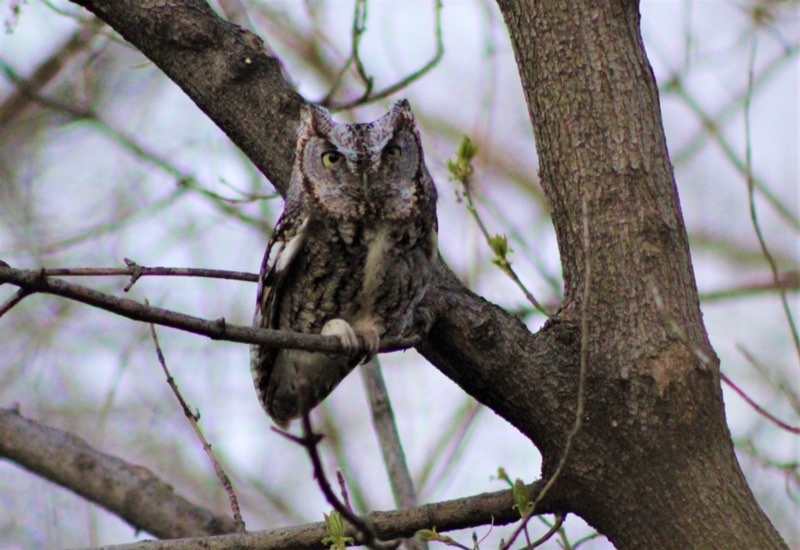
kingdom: Animalia
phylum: Chordata
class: Aves
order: Strigiformes
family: Strigidae
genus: Megascops
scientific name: Megascops asio
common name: Eastern screech-owl
